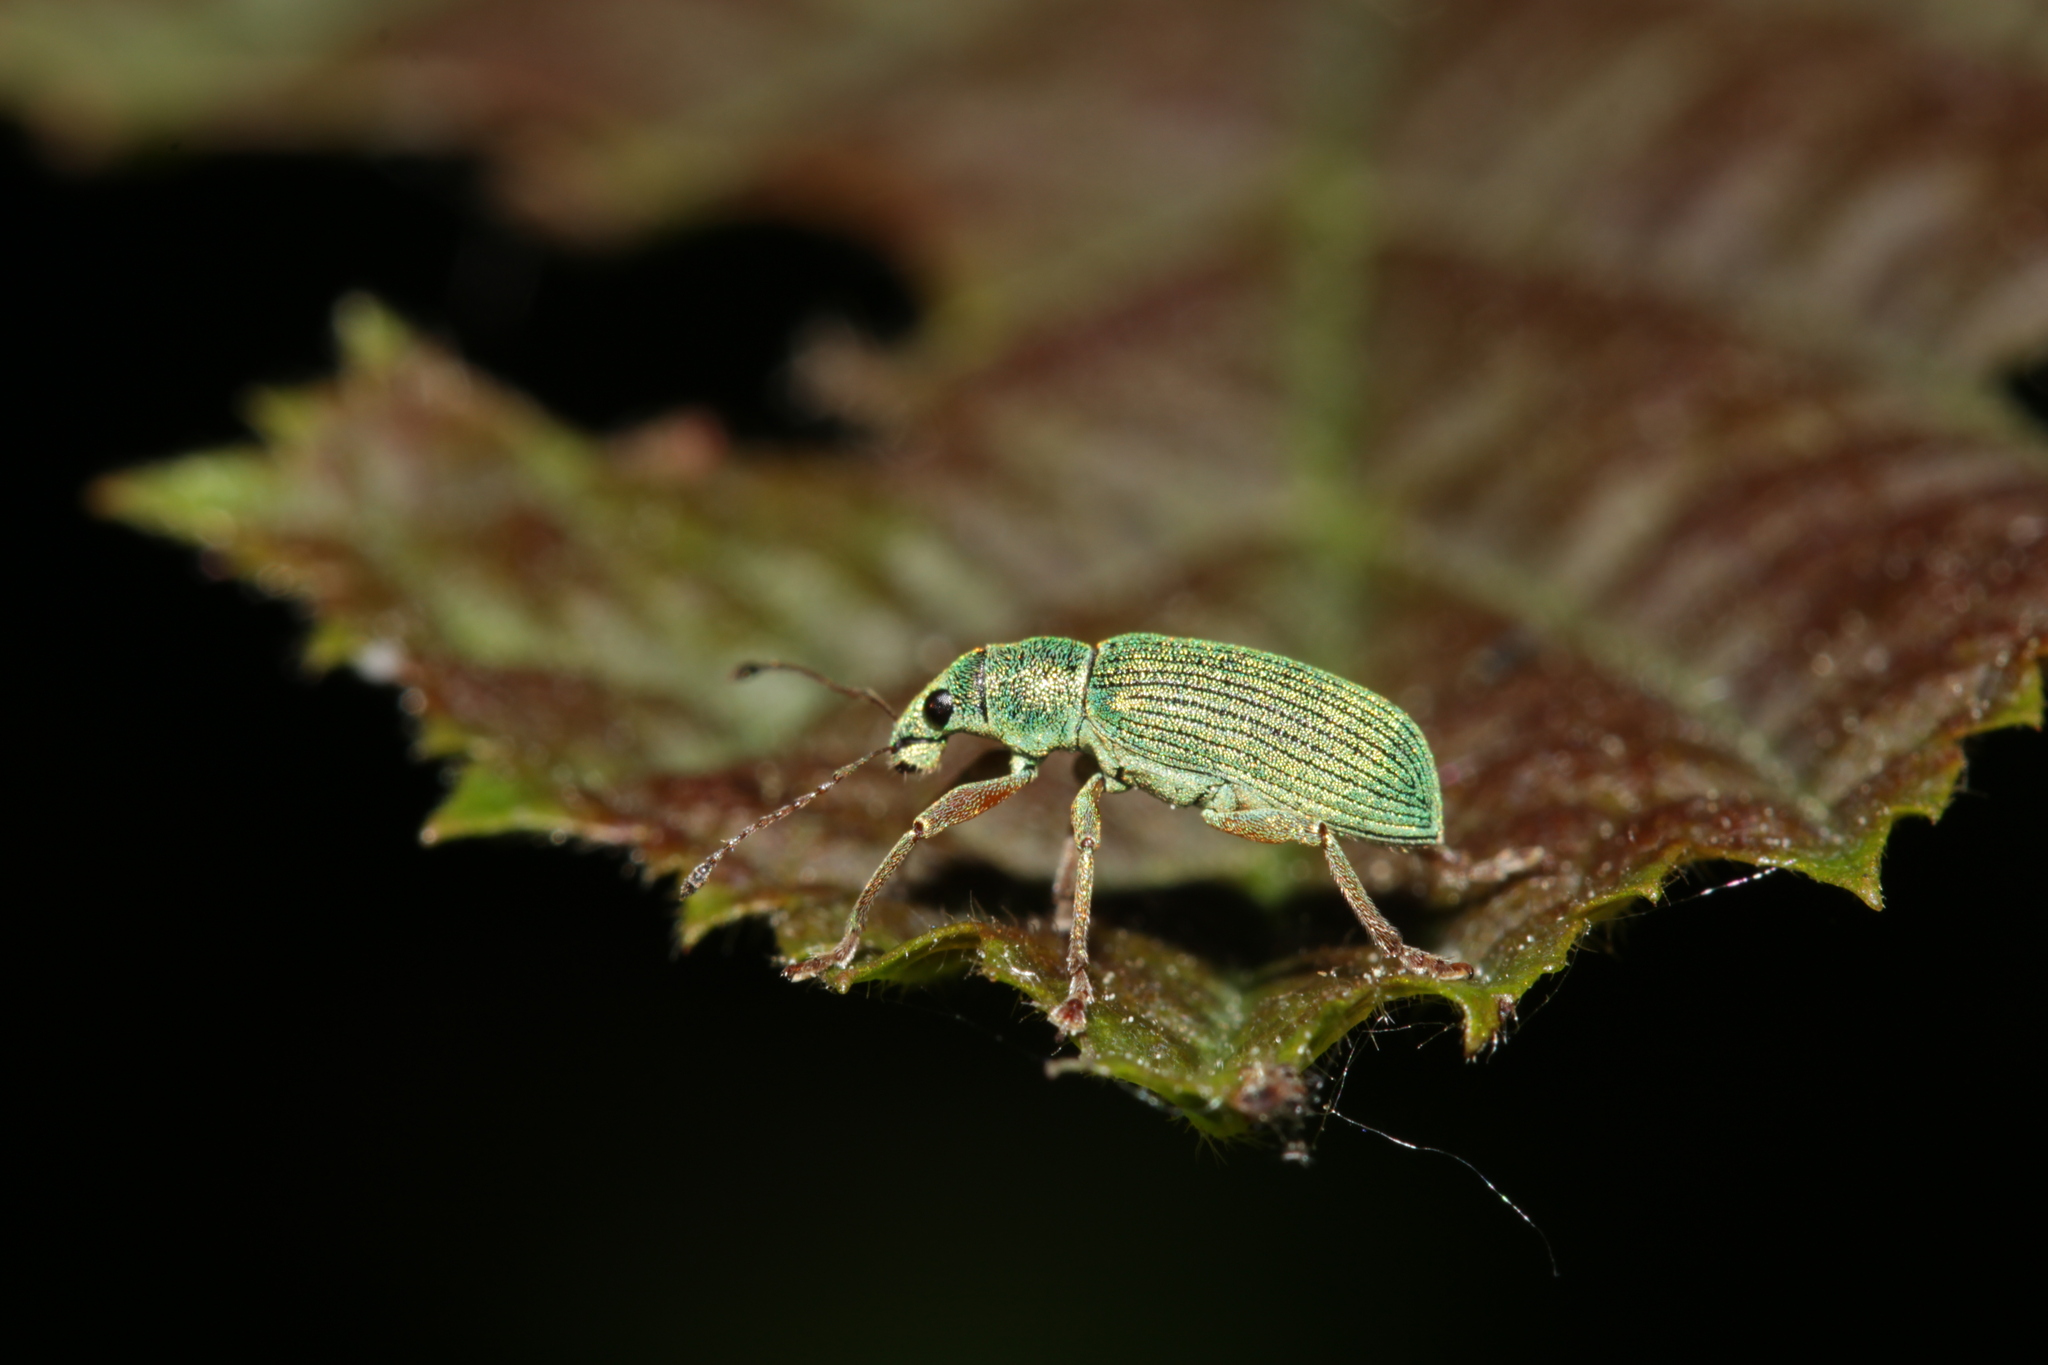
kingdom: Animalia
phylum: Arthropoda
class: Insecta
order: Coleoptera
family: Curculionidae
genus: Polydrusus
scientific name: Polydrusus formosus
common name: Weevil
